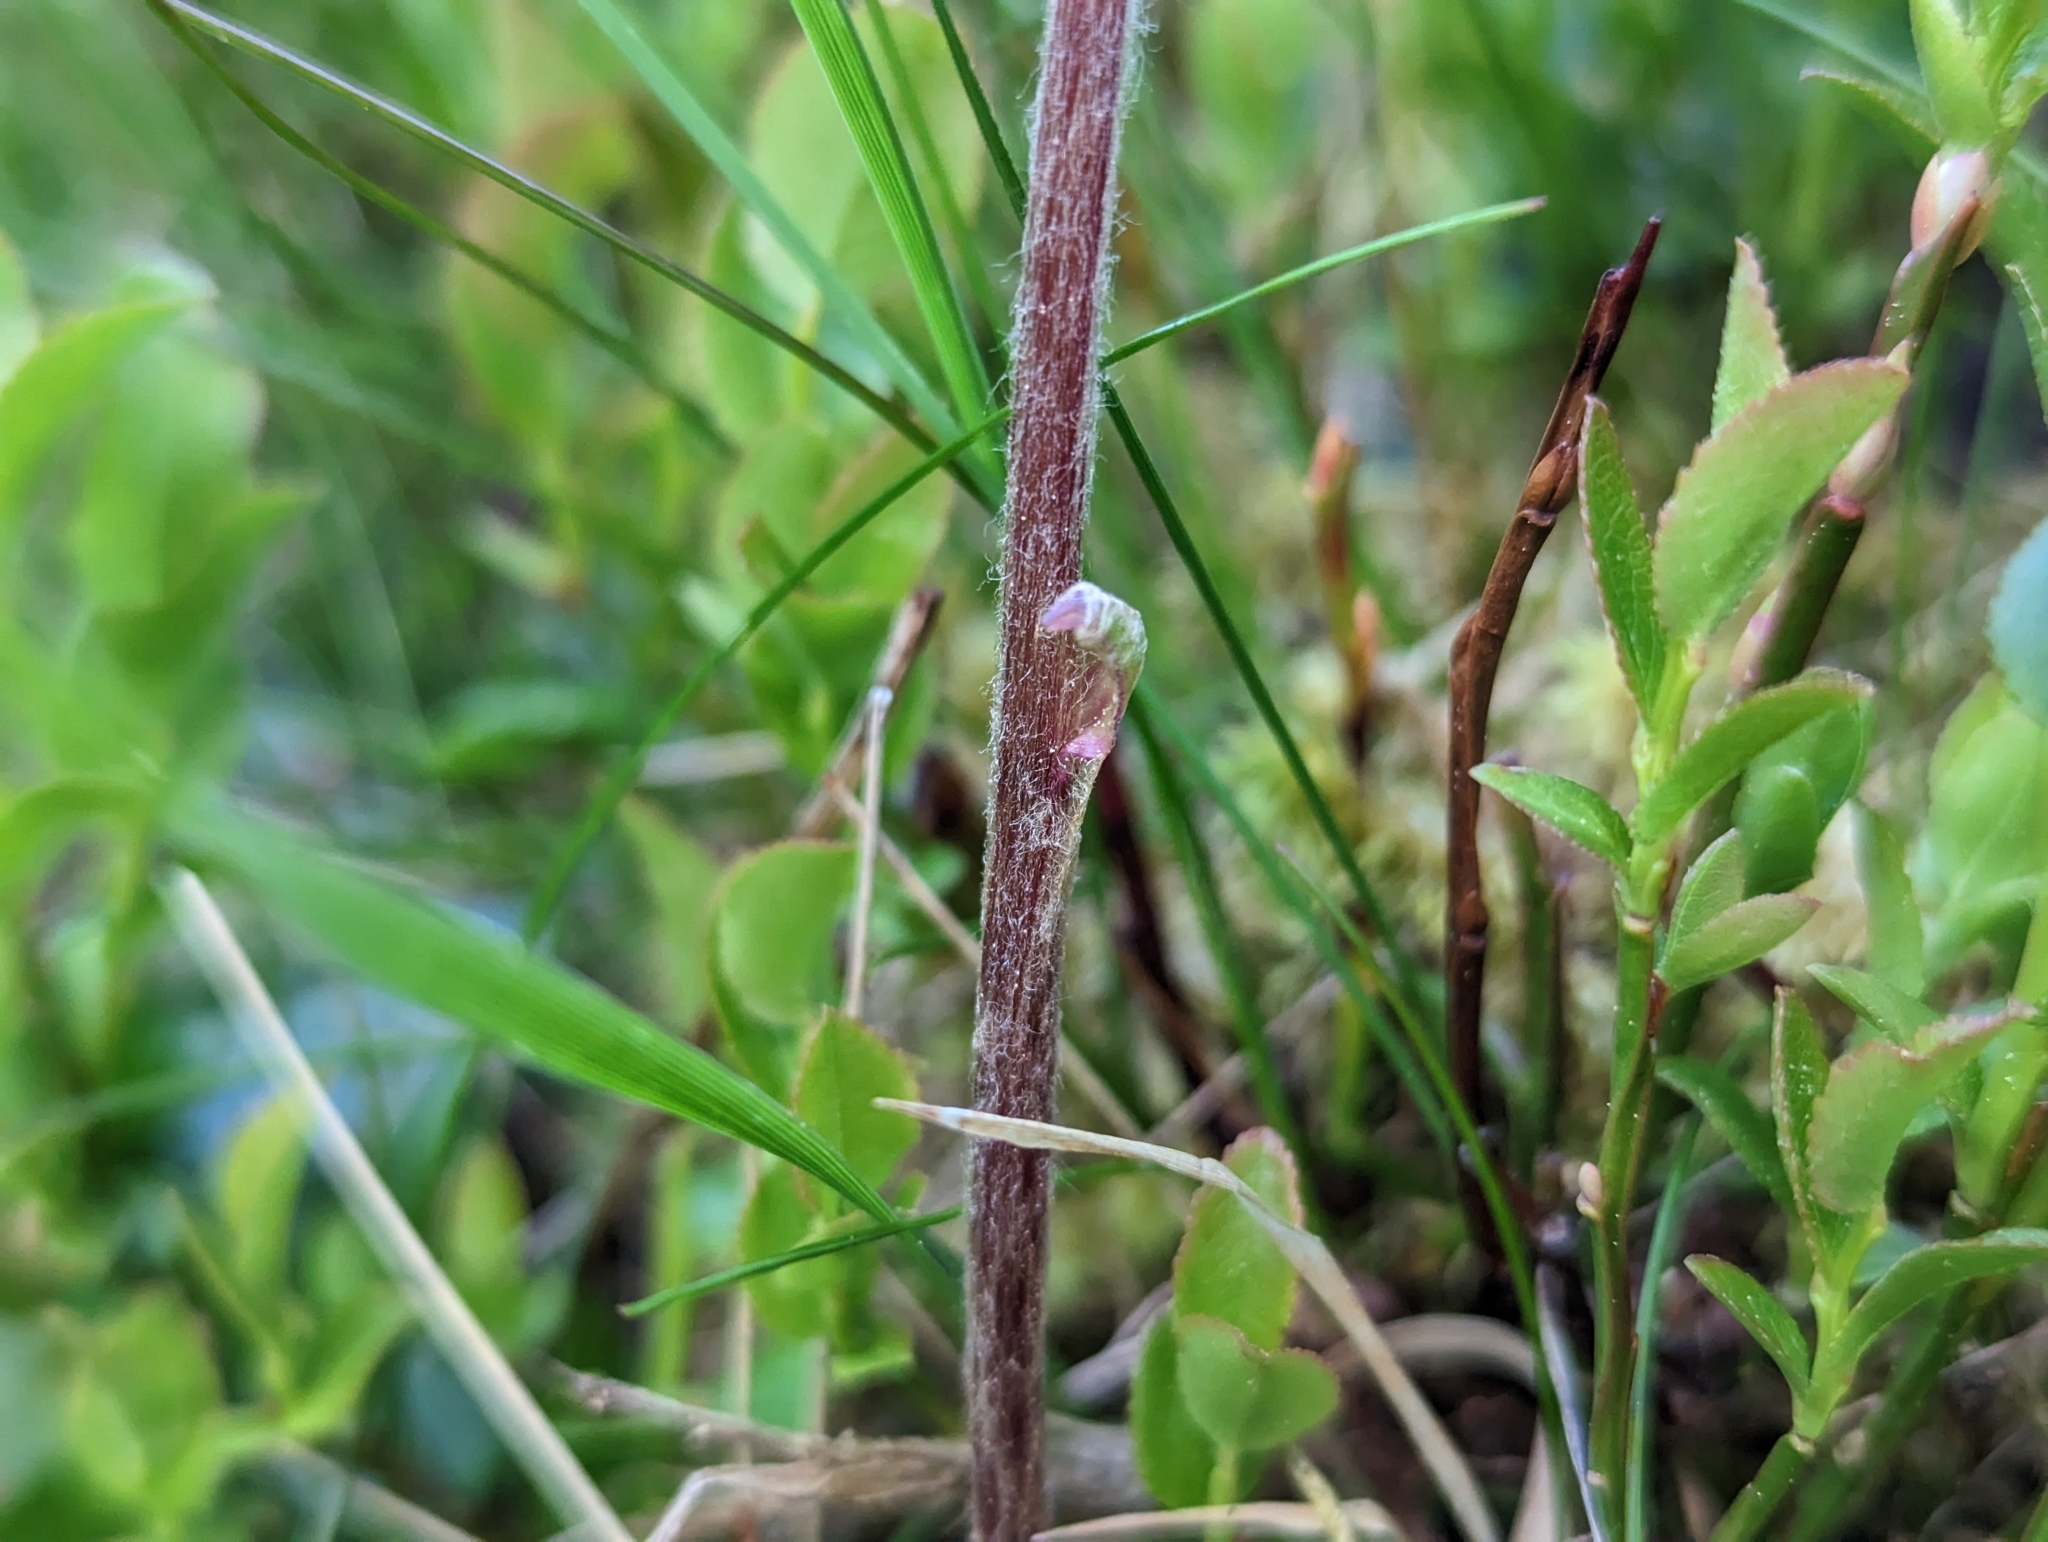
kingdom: Plantae
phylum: Tracheophyta
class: Magnoliopsida
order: Asterales
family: Asteraceae
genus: Homogyne
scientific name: Homogyne alpina
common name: Purple colt's-foot
